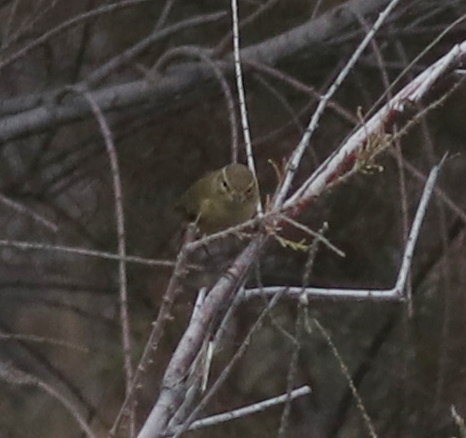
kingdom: Animalia
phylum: Chordata
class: Aves
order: Passeriformes
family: Phylloscopidae
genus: Phylloscopus
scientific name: Phylloscopus collybita
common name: Common chiffchaff
